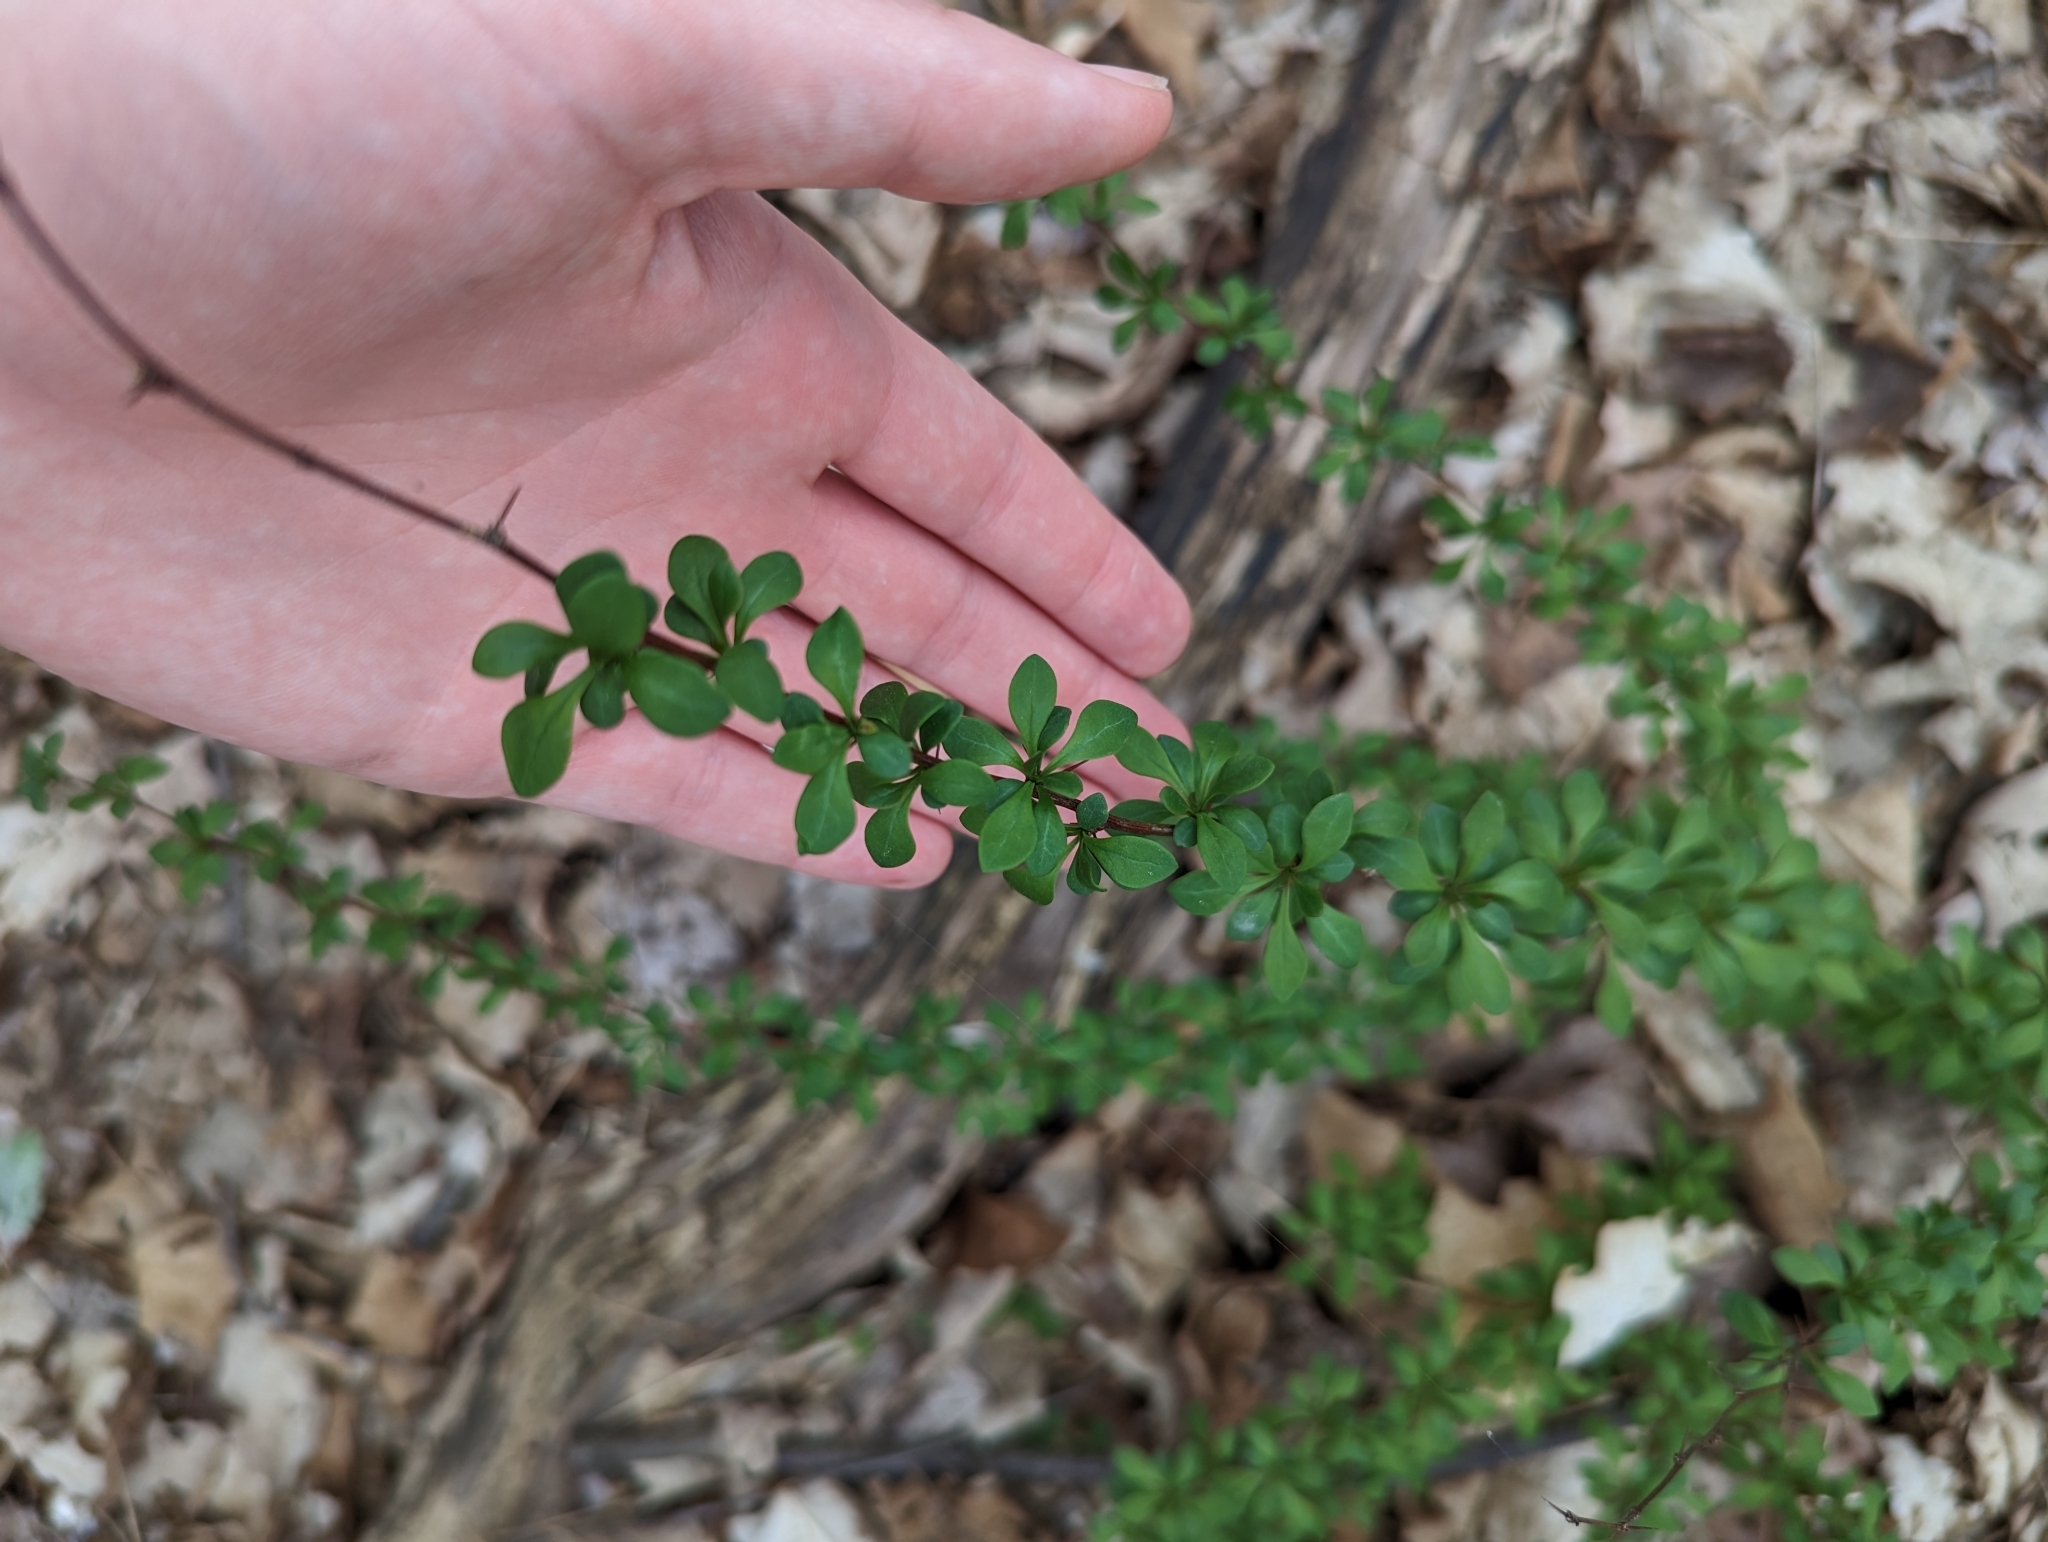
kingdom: Plantae
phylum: Tracheophyta
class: Magnoliopsida
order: Ranunculales
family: Berberidaceae
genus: Berberis
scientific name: Berberis thunbergii
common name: Japanese barberry
